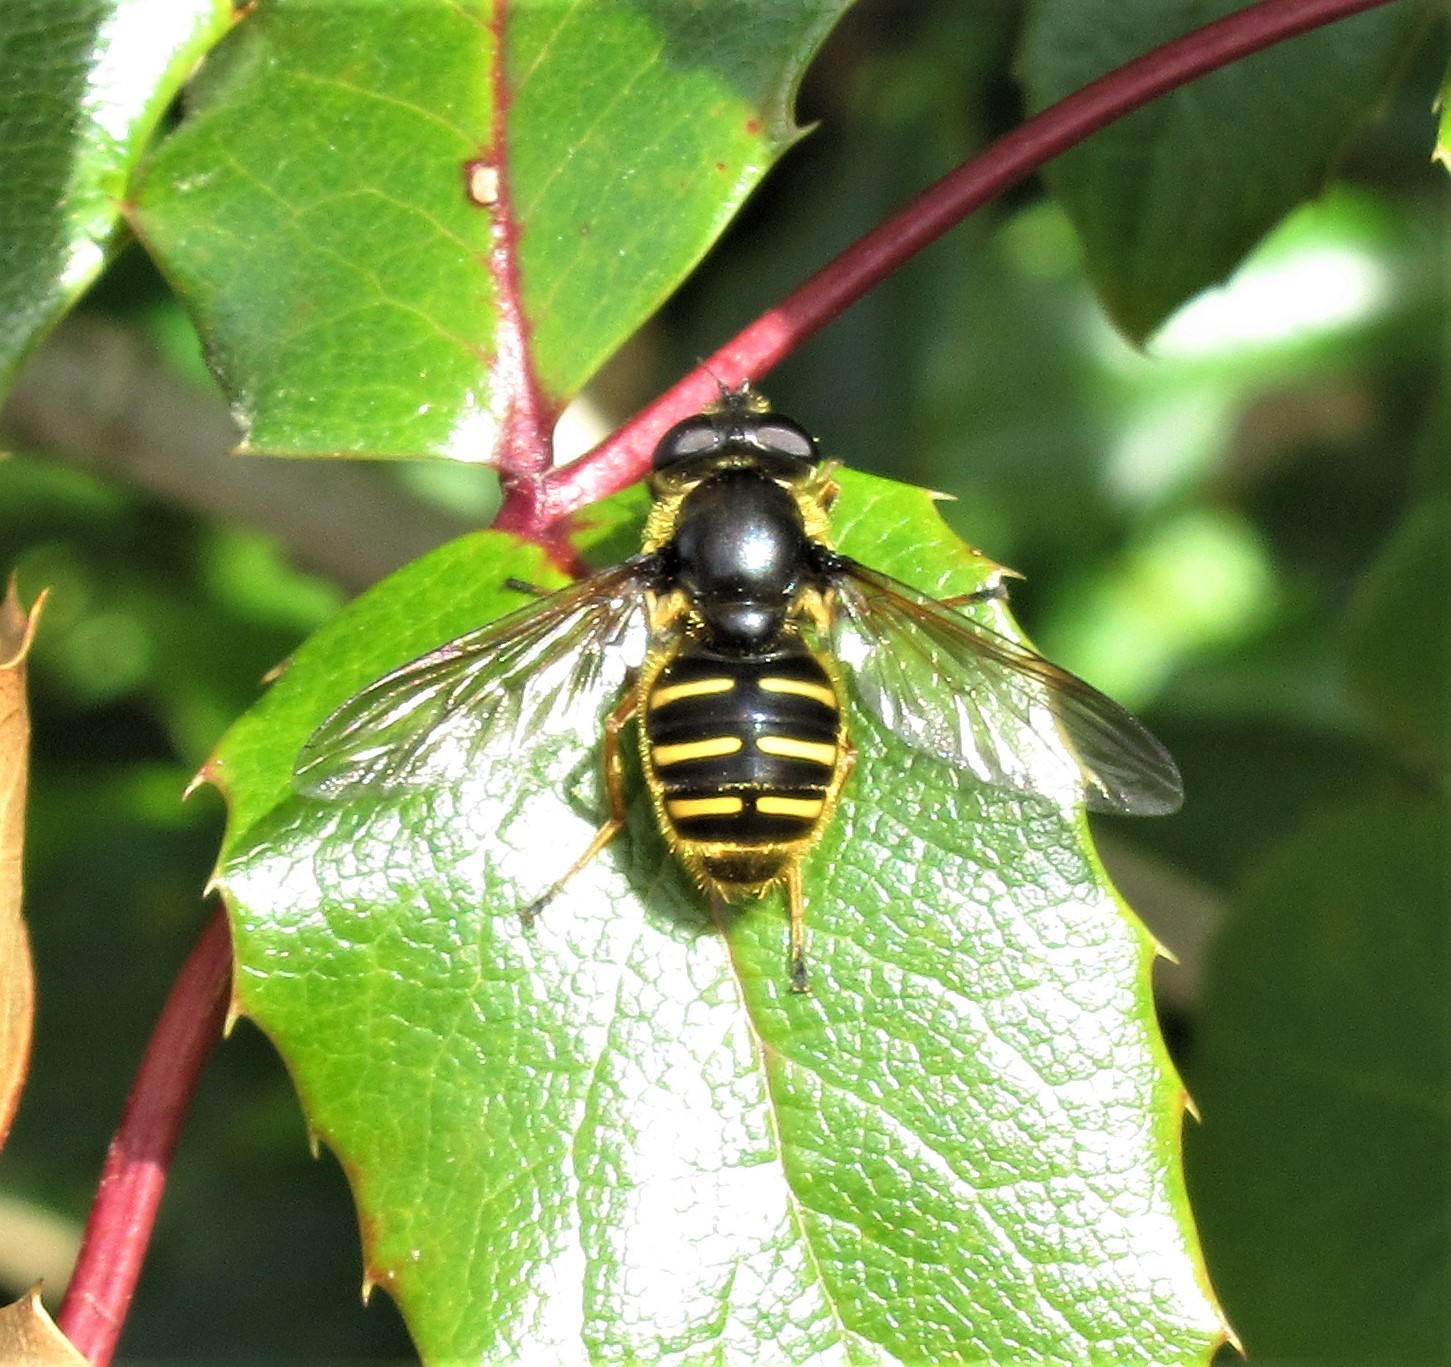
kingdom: Animalia
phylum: Arthropoda
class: Insecta
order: Diptera
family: Syrphidae
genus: Sericomyia
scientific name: Sericomyia chalcopyga
